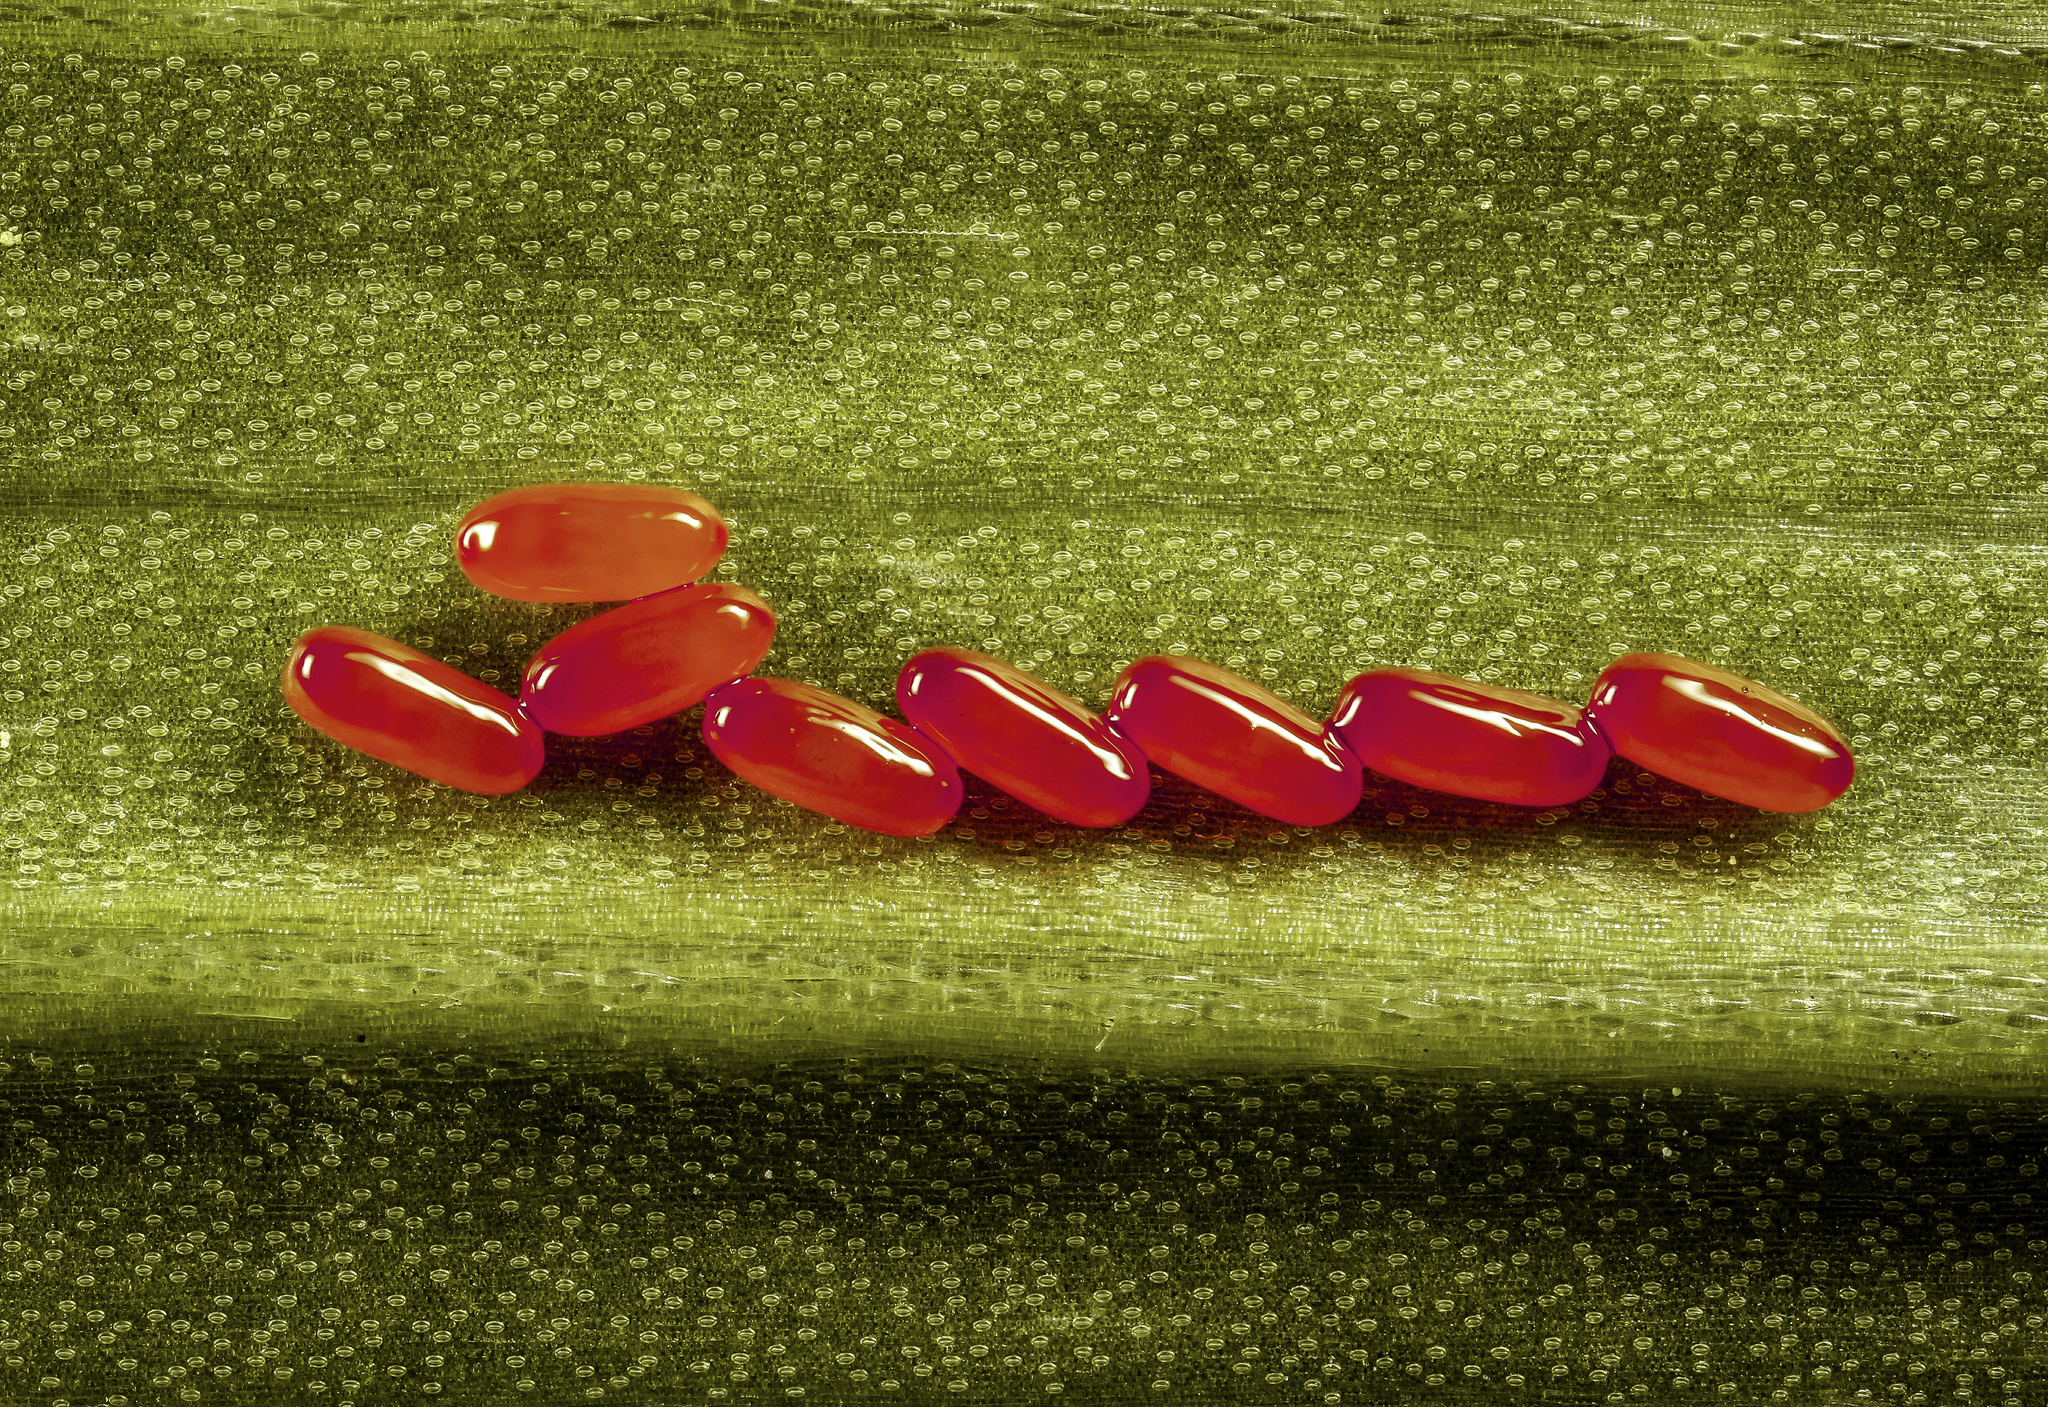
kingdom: Animalia
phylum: Arthropoda
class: Insecta
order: Coleoptera
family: Chrysomelidae
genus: Lilioceris
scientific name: Lilioceris lilii
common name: Lily beetle
